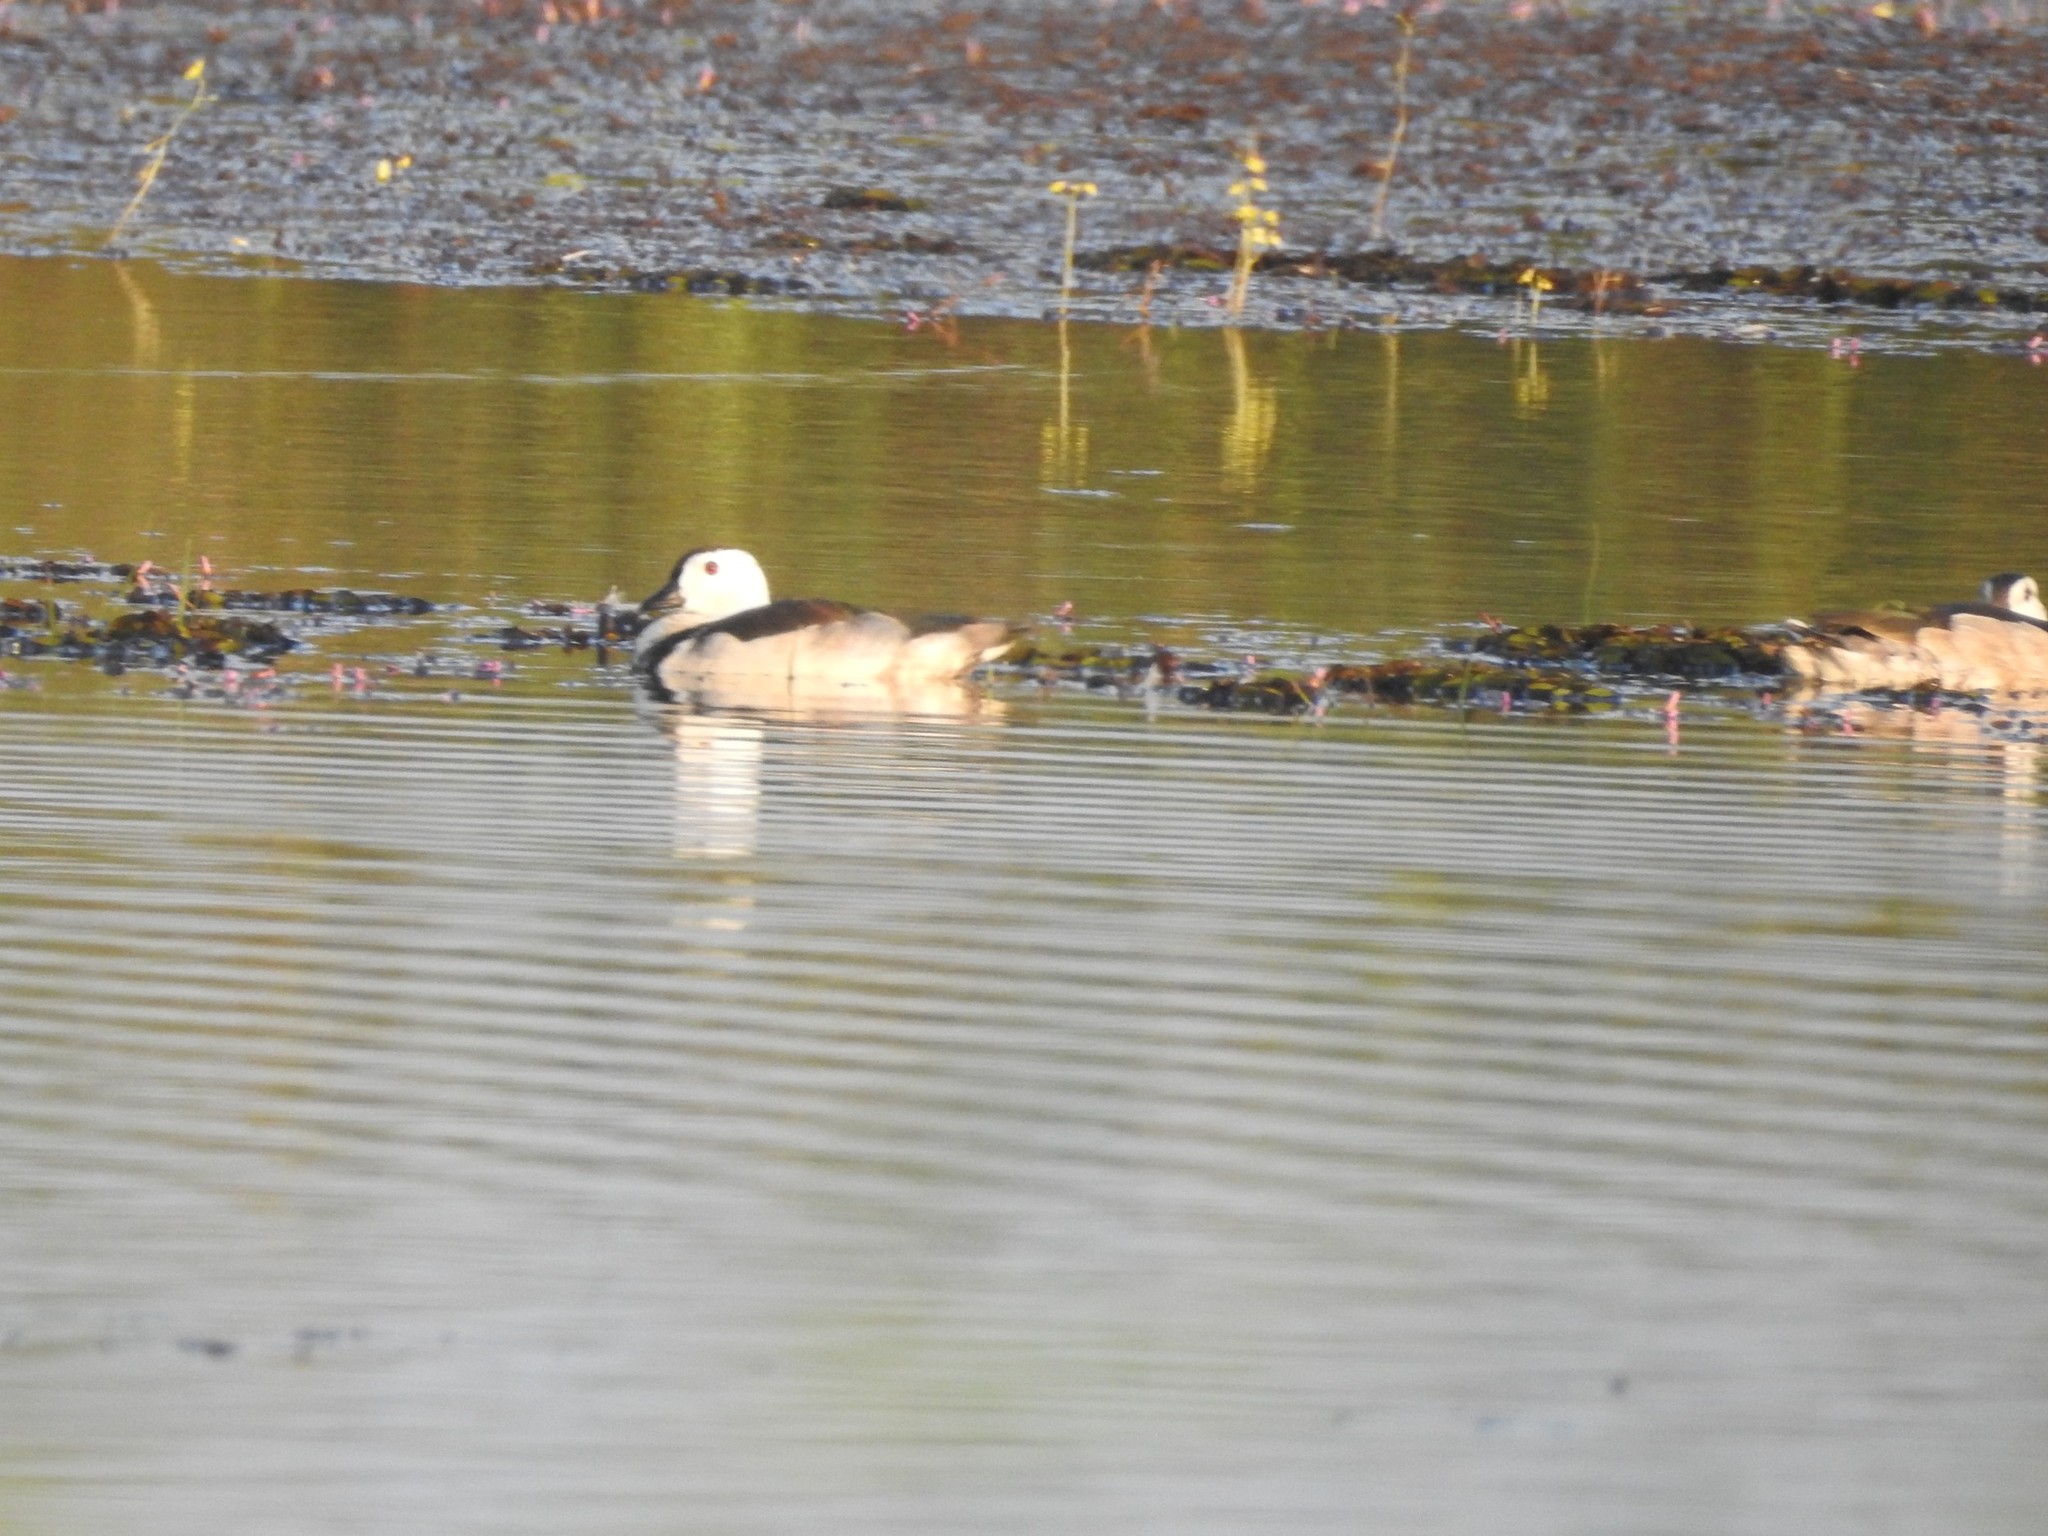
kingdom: Animalia
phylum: Chordata
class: Aves
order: Anseriformes
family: Anatidae
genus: Nettapus
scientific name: Nettapus coromandelianus
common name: Cotton pygmy-goose
